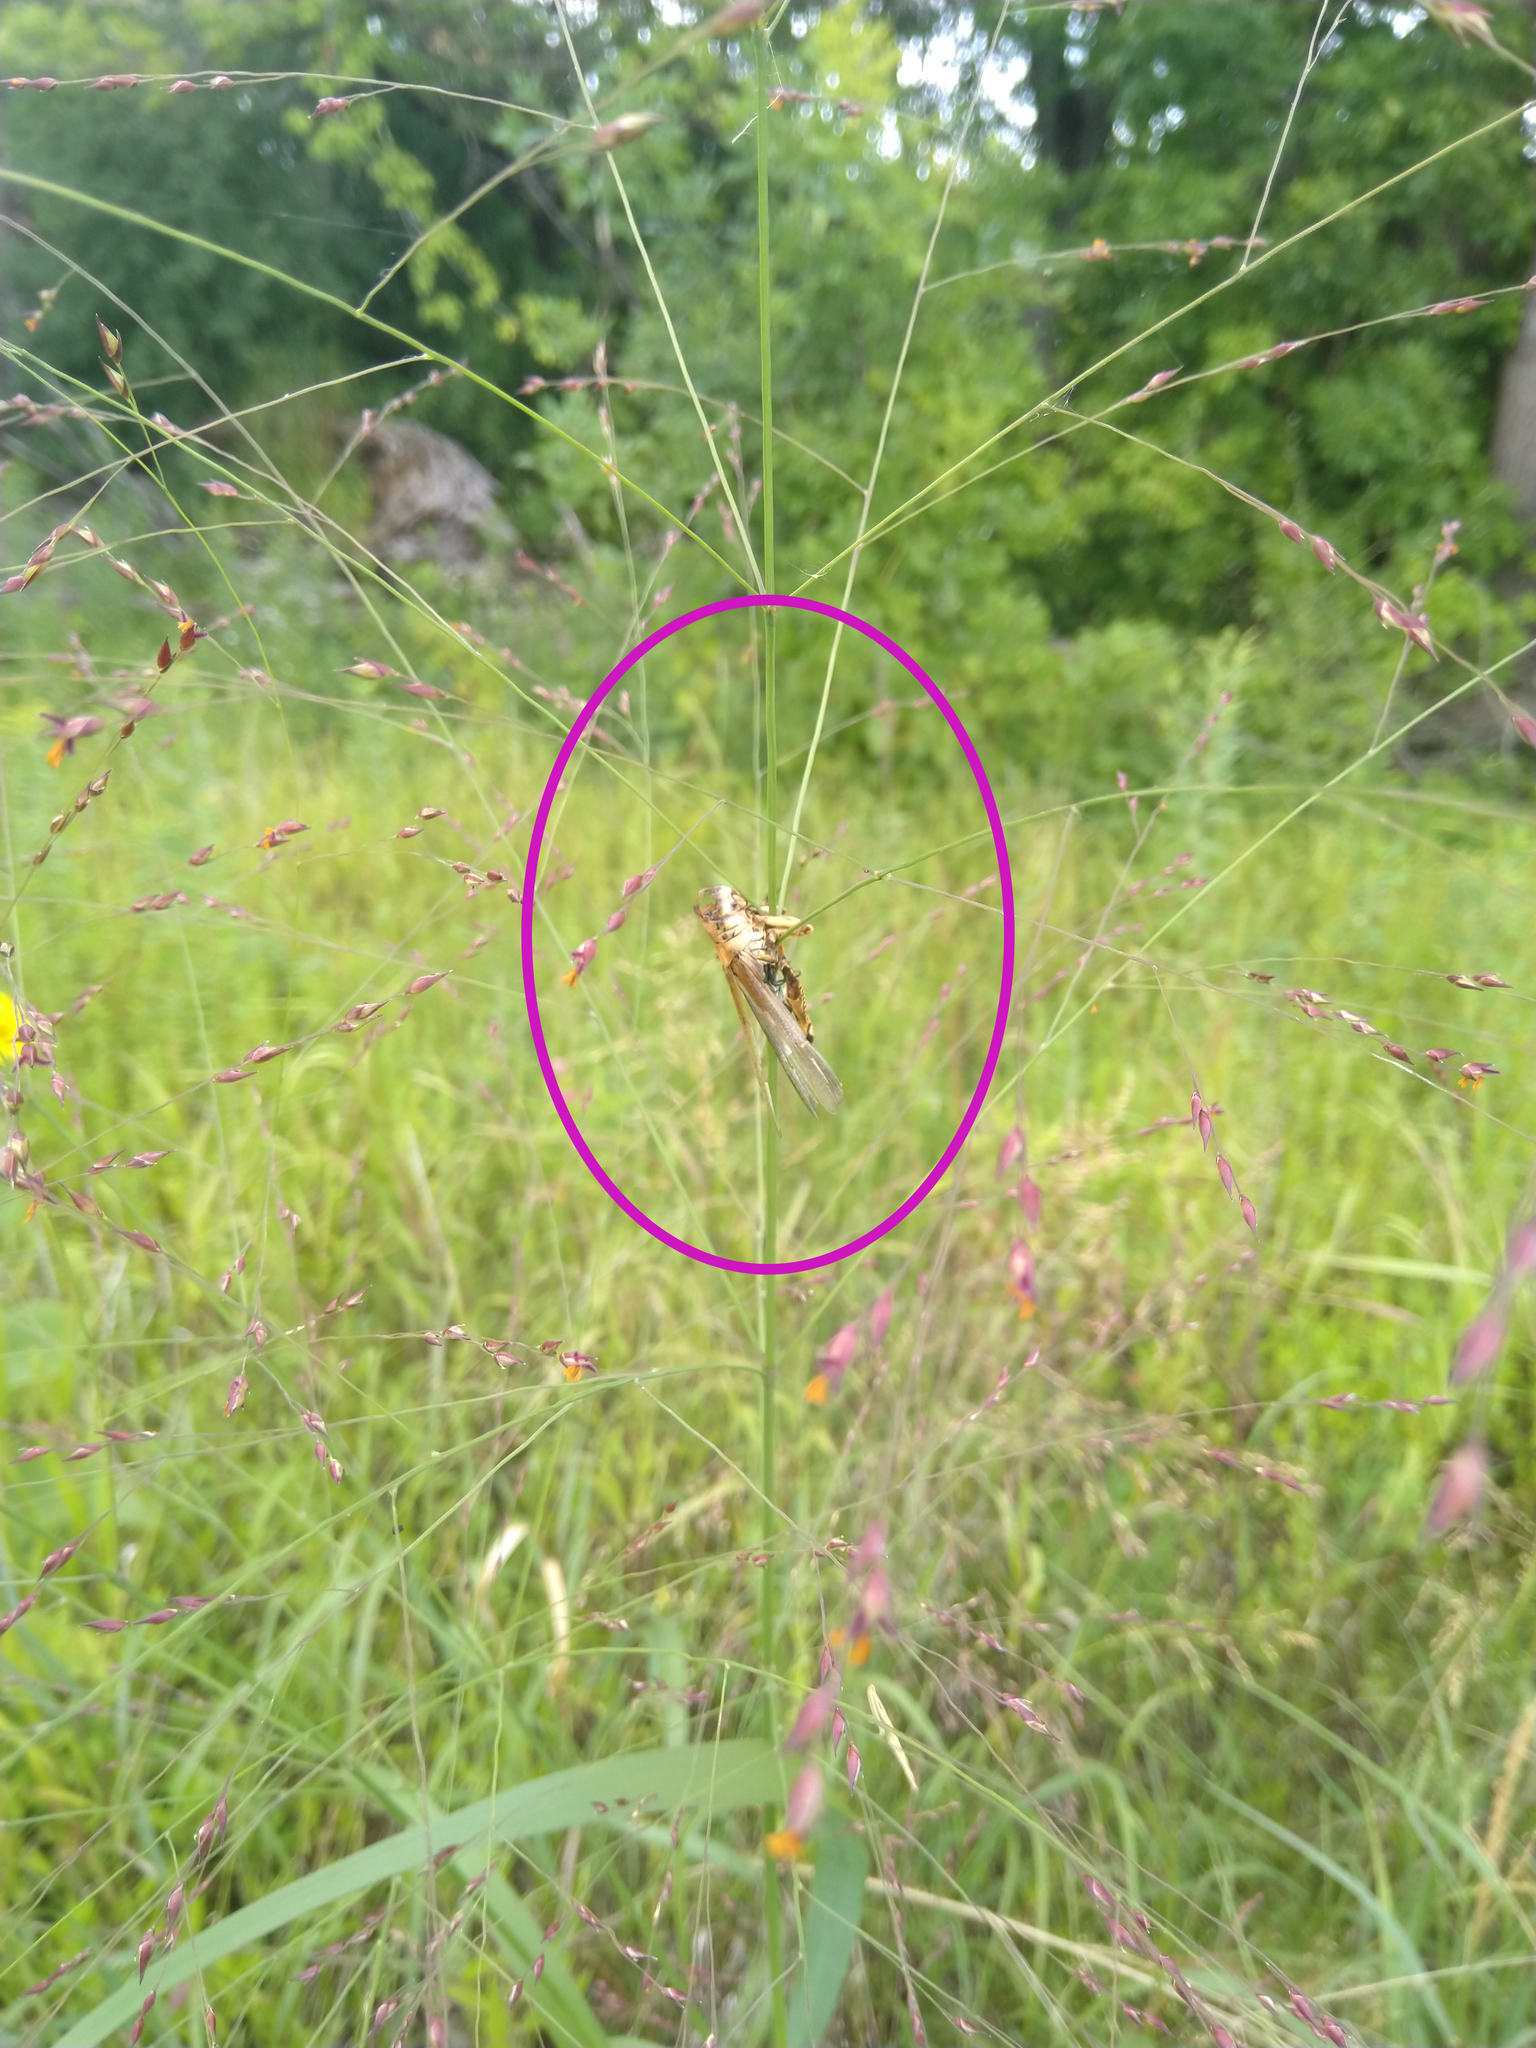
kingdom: Animalia
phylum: Arthropoda
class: Insecta
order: Orthoptera
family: Acrididae
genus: Melanoplus
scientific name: Melanoplus differentialis
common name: Differential grasshopper
